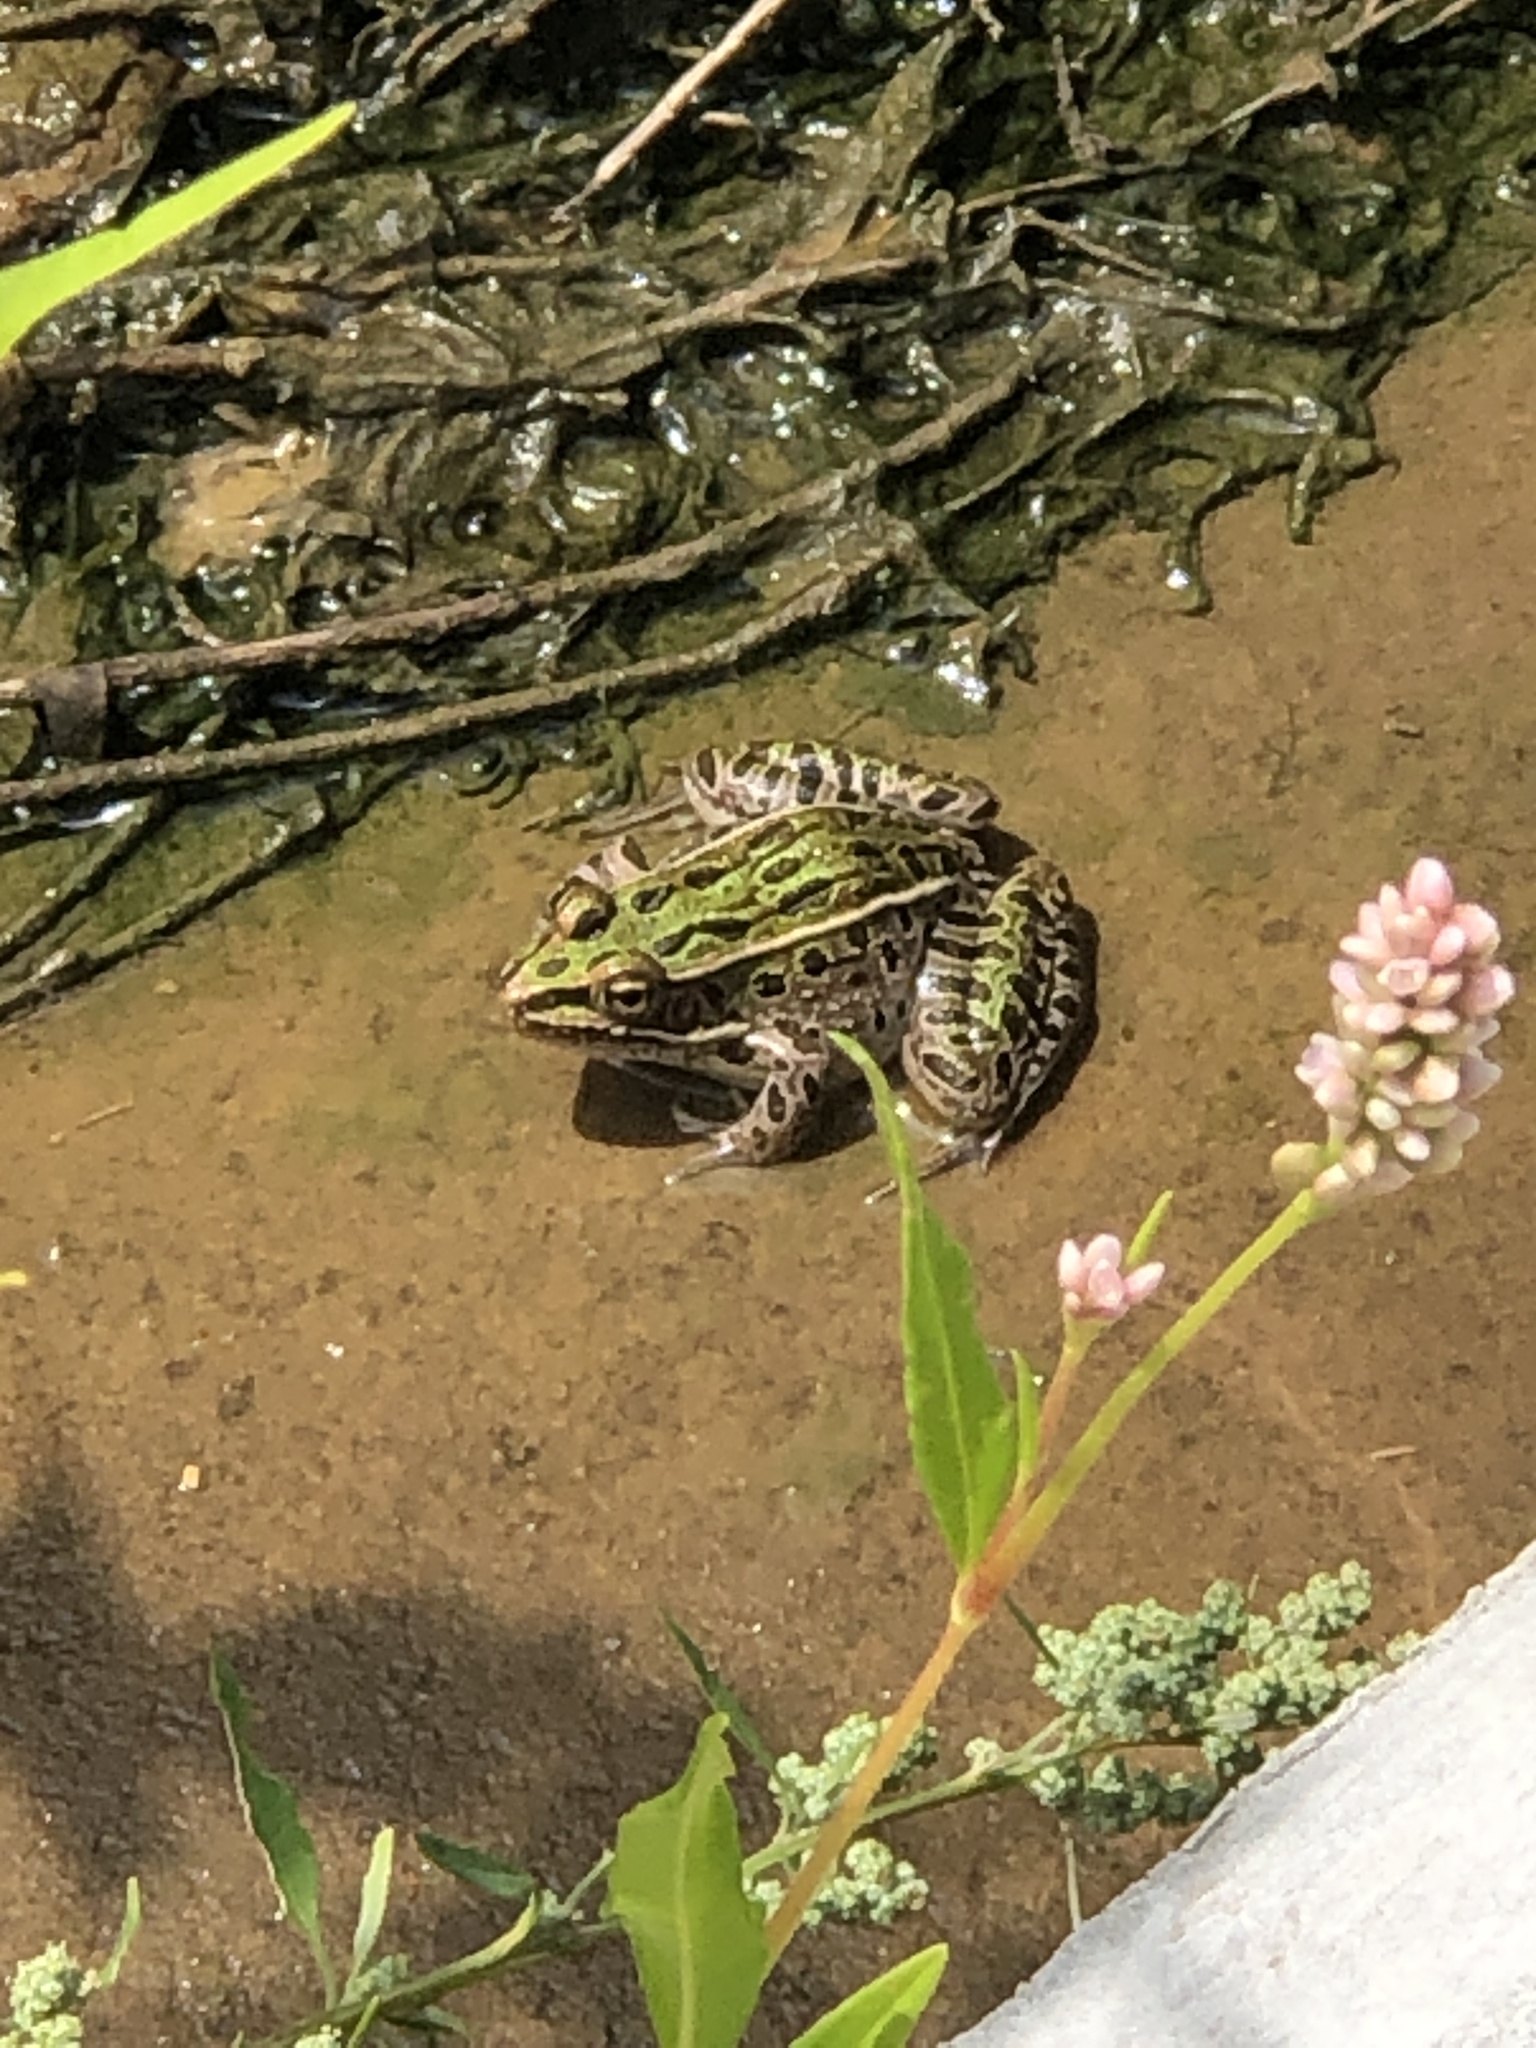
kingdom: Animalia
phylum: Chordata
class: Amphibia
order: Anura
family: Ranidae
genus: Lithobates
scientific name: Lithobates pipiens
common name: Northern leopard frog
